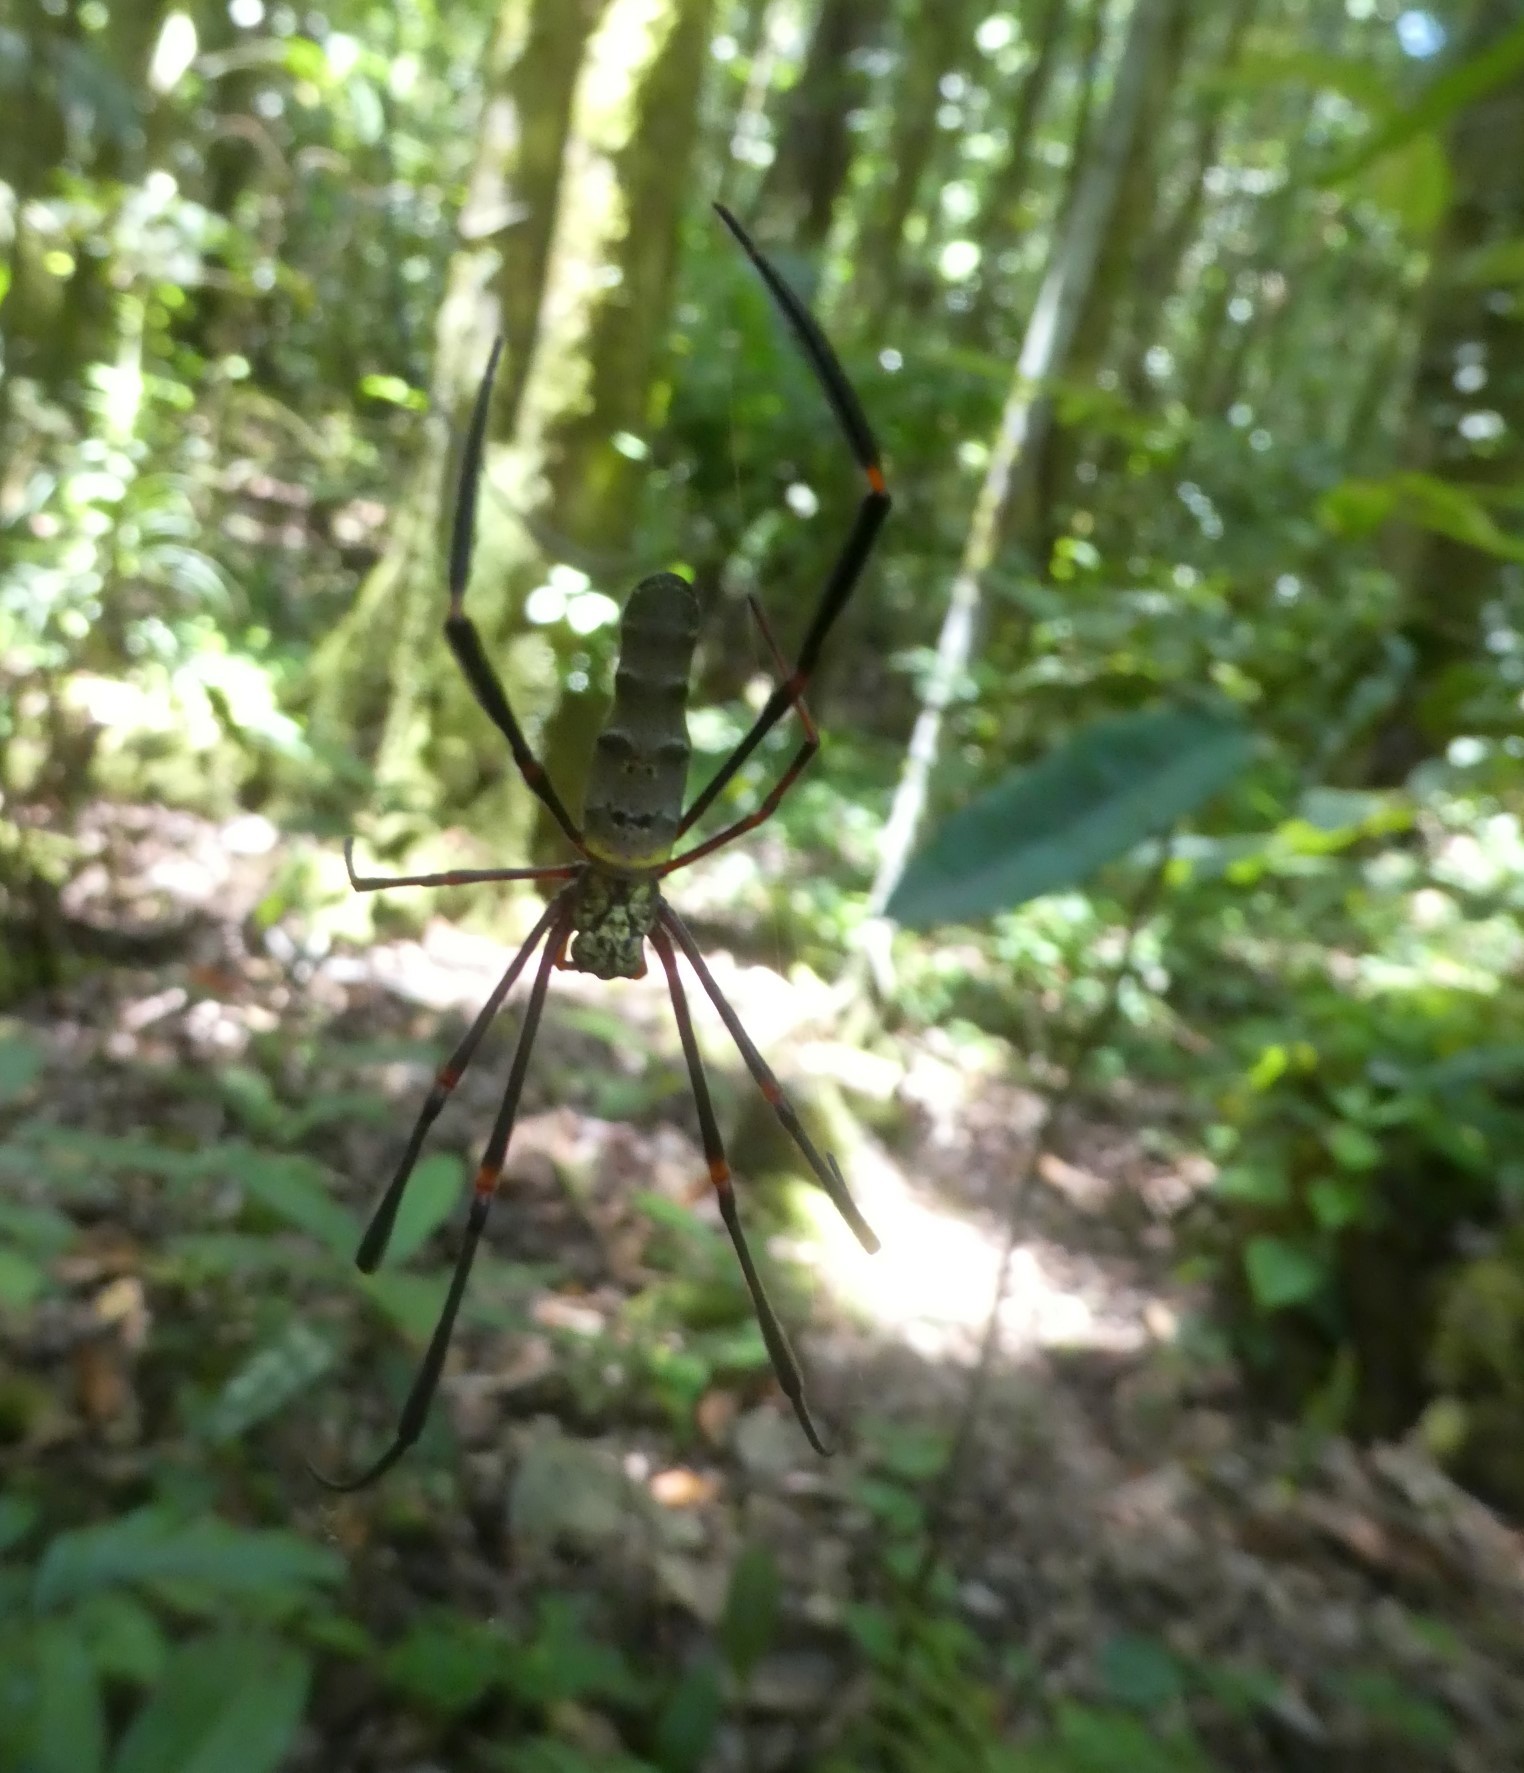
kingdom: Animalia
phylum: Arthropoda
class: Arachnida
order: Araneae
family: Araneidae
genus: Nephila
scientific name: Nephila pilipes
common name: Giant golden orb weaver
